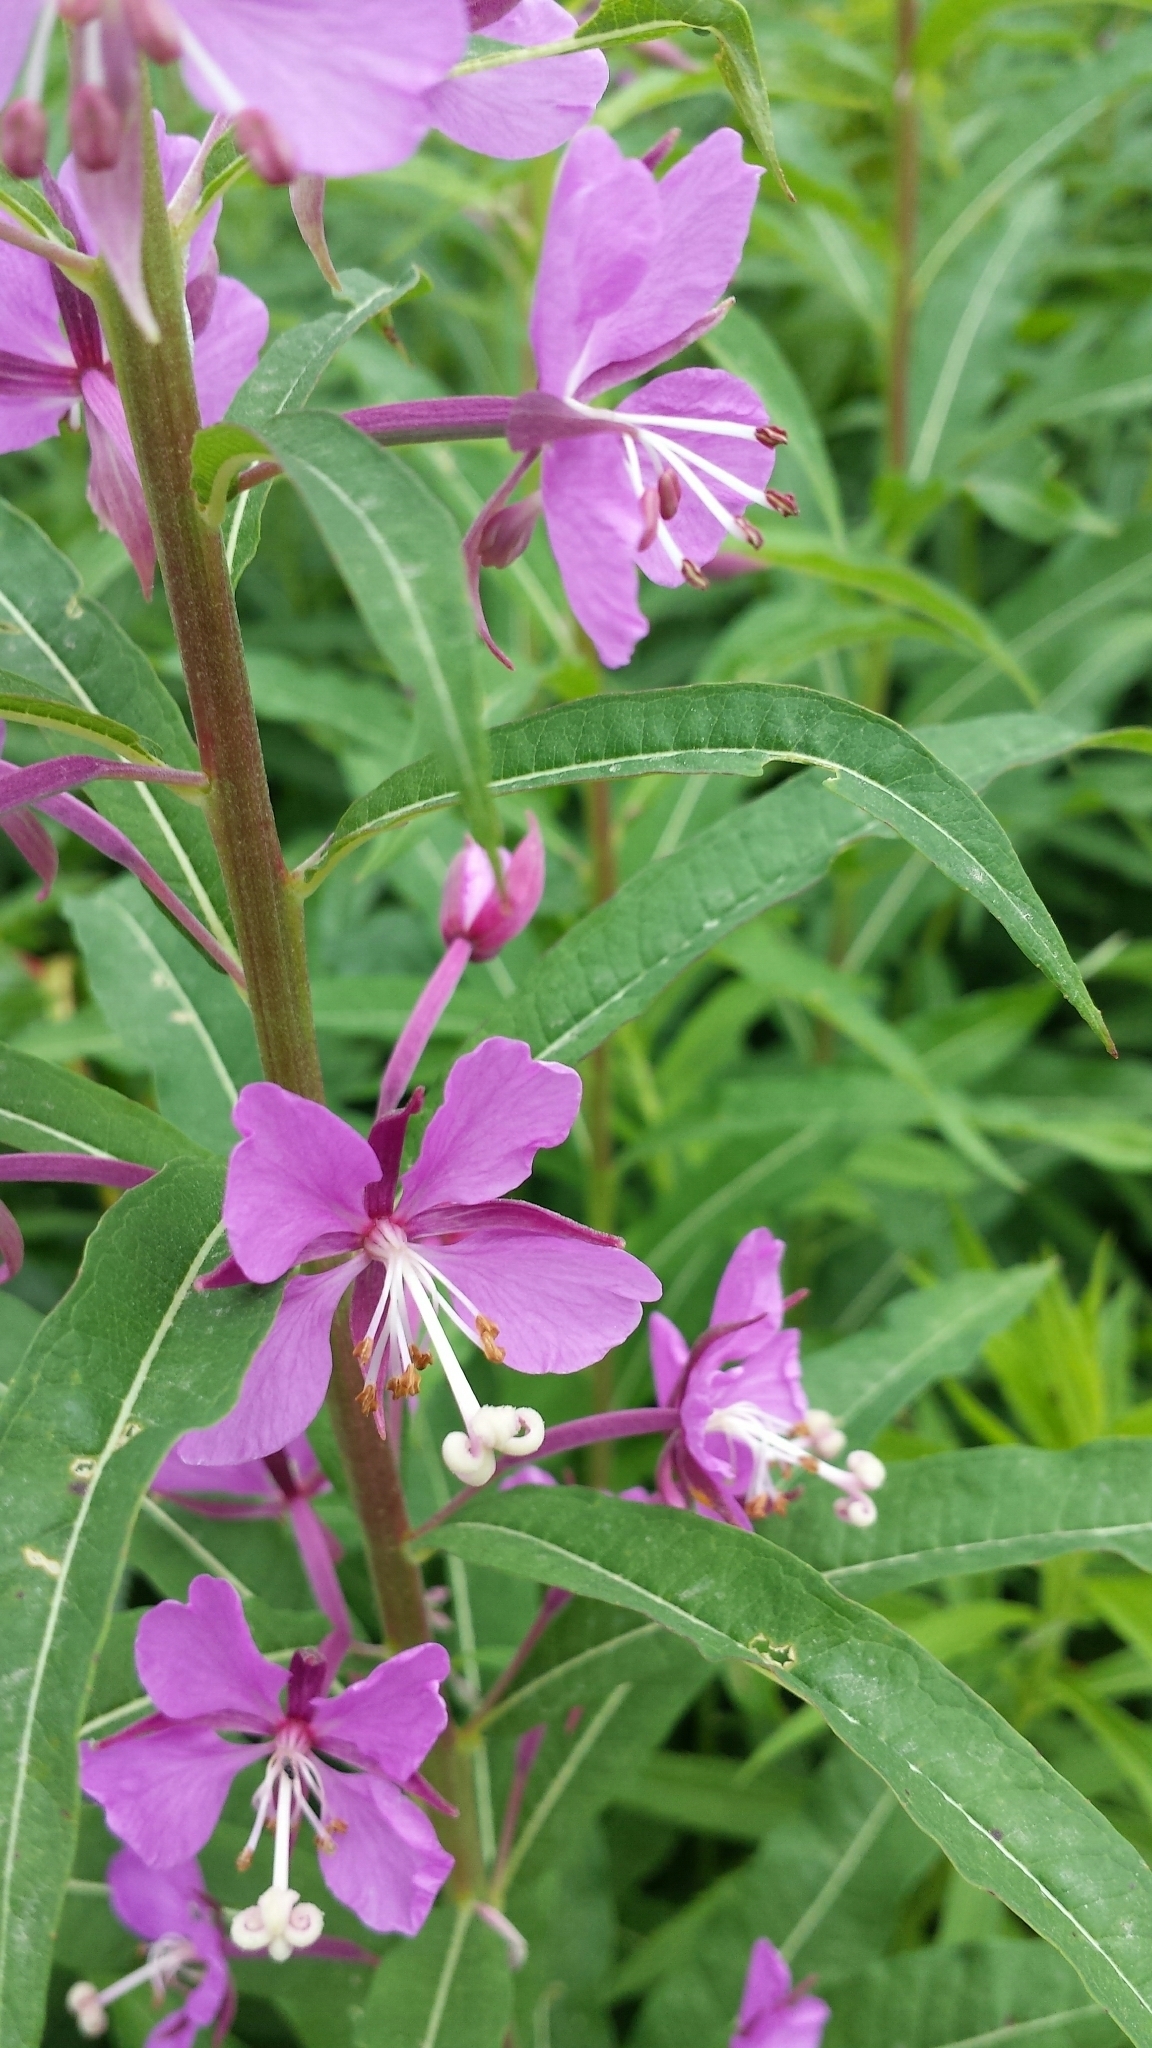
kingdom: Plantae
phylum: Tracheophyta
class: Magnoliopsida
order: Myrtales
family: Onagraceae
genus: Chamaenerion
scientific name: Chamaenerion angustifolium
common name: Fireweed
